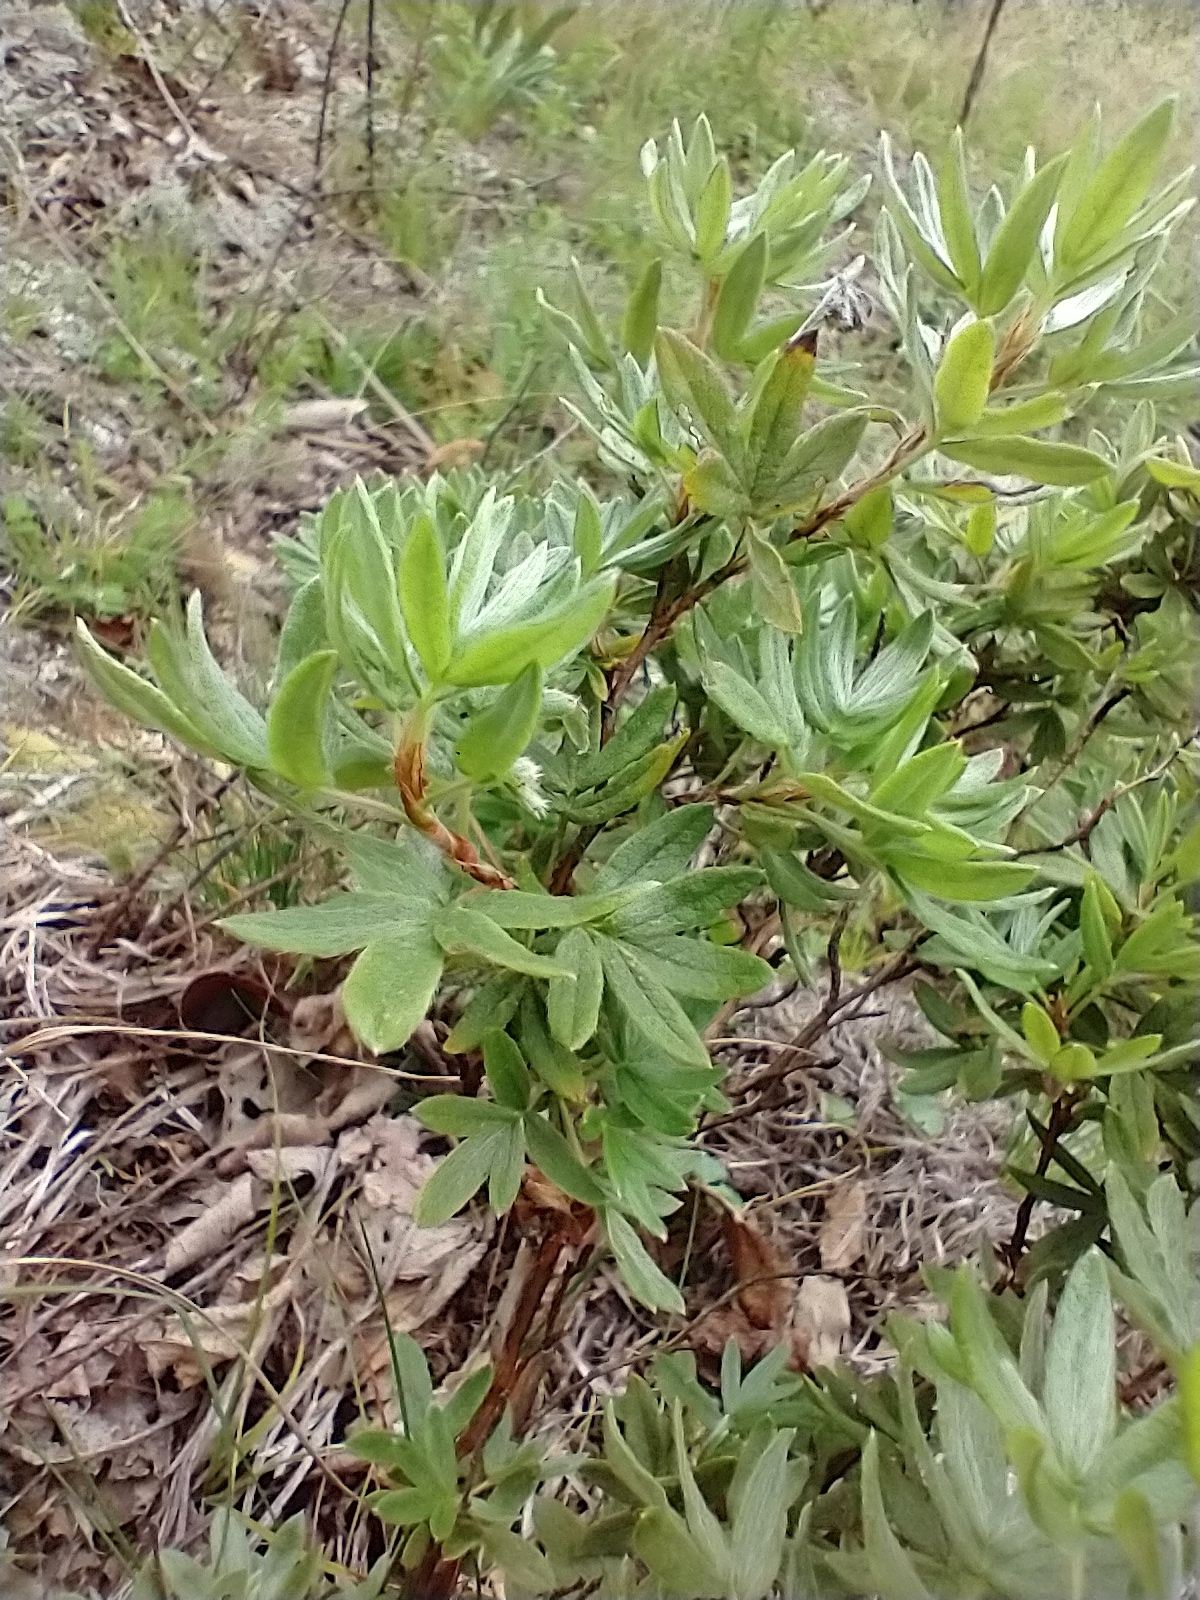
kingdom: Plantae
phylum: Tracheophyta
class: Magnoliopsida
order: Rosales
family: Rosaceae
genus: Dasiphora
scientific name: Dasiphora fruticosa
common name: Shrubby cinquefoil
